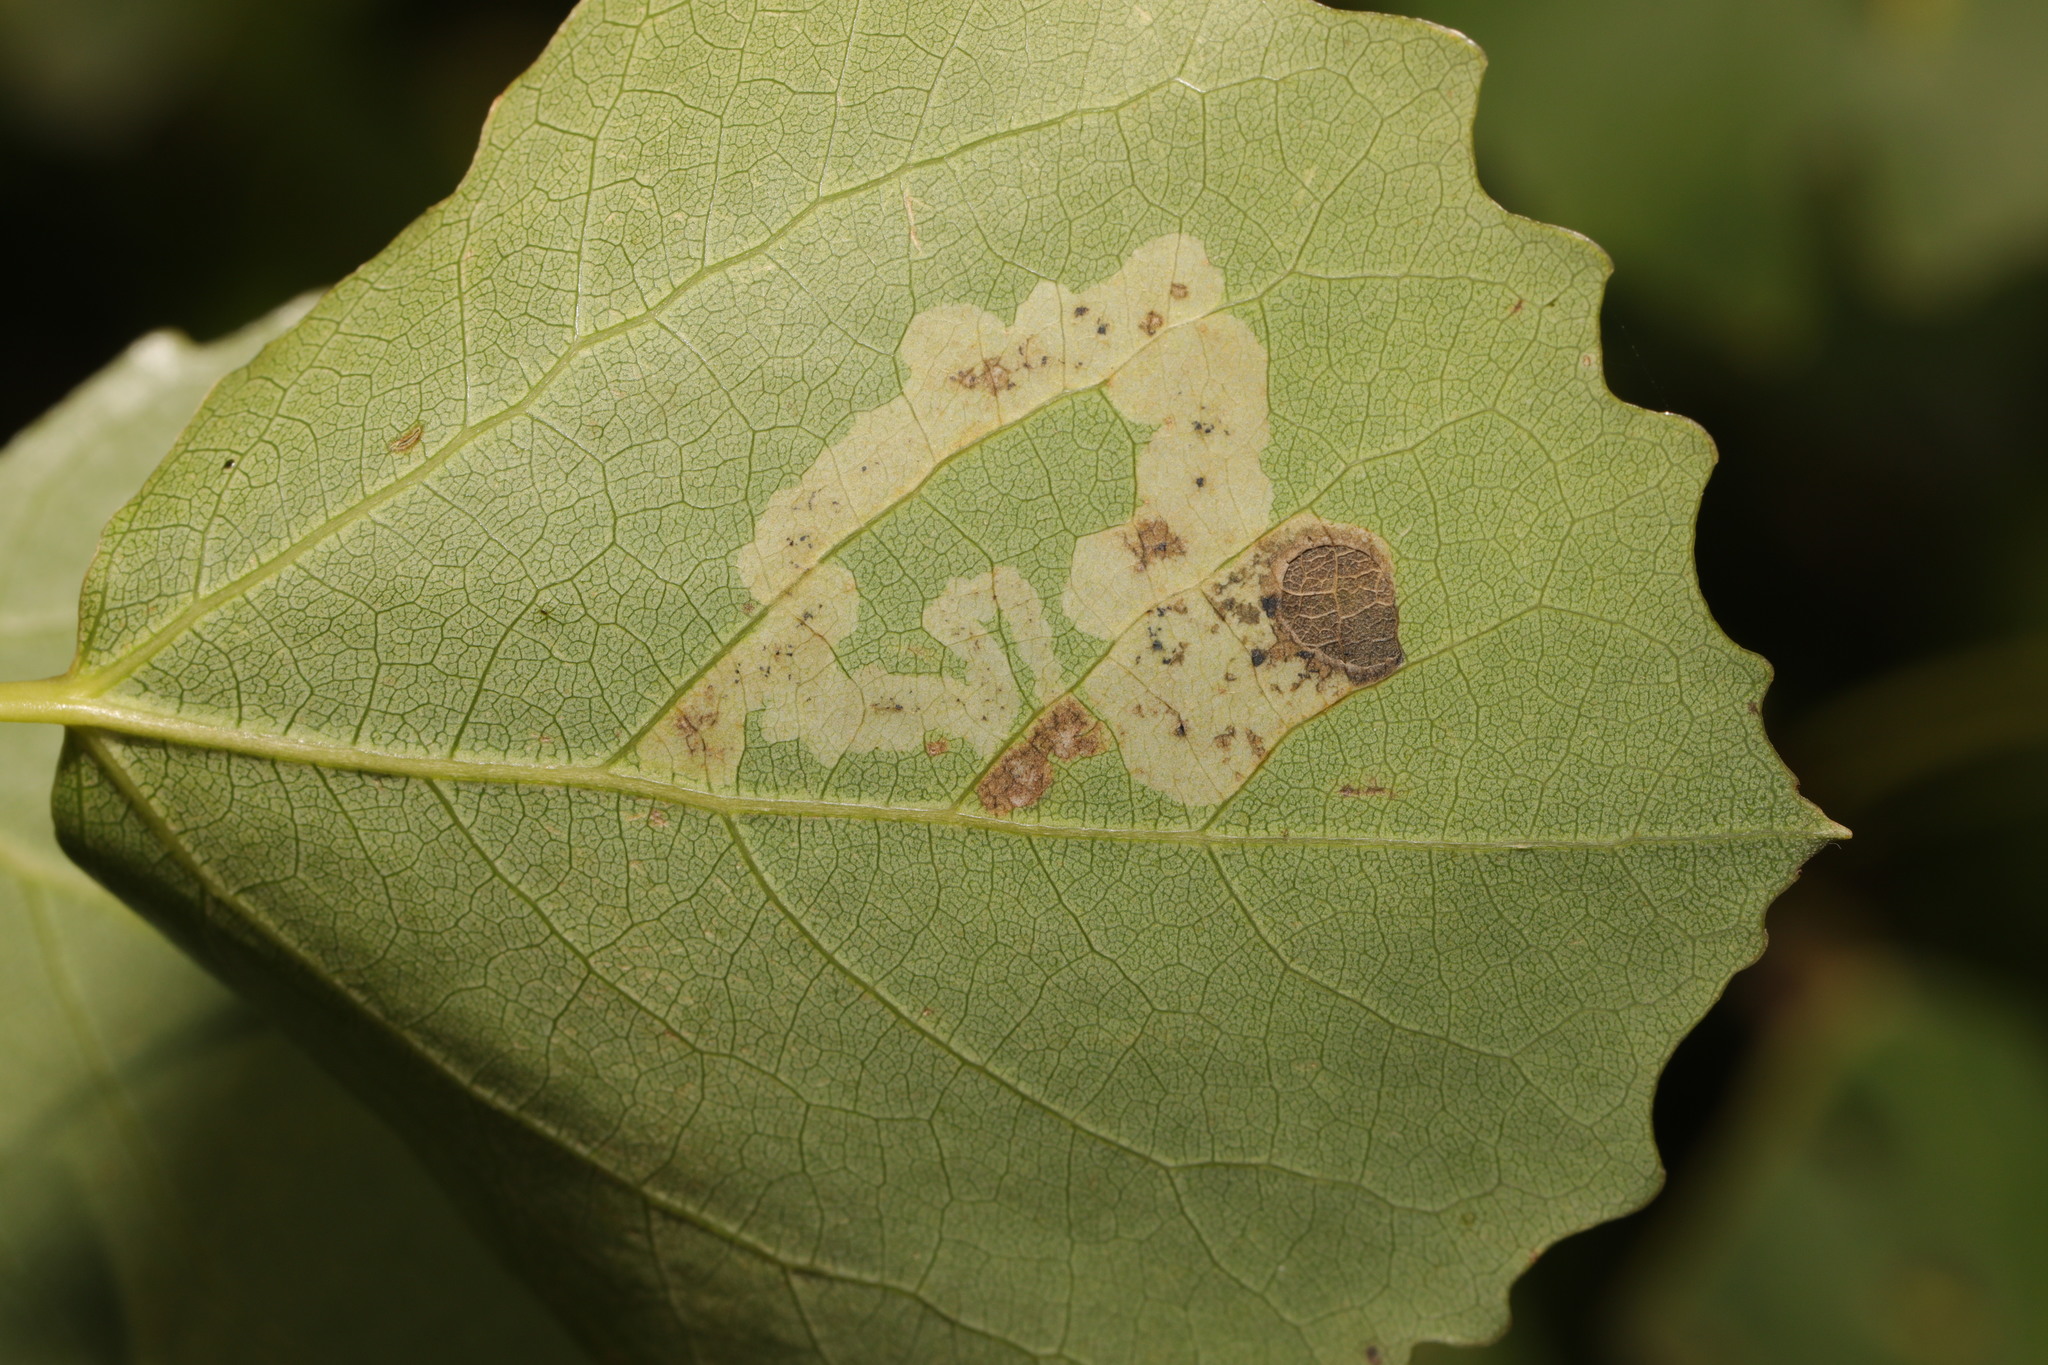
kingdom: Animalia
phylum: Arthropoda
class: Insecta
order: Diptera
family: Agromyzidae
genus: Aulagromyza
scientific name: Aulagromyza tremulae
